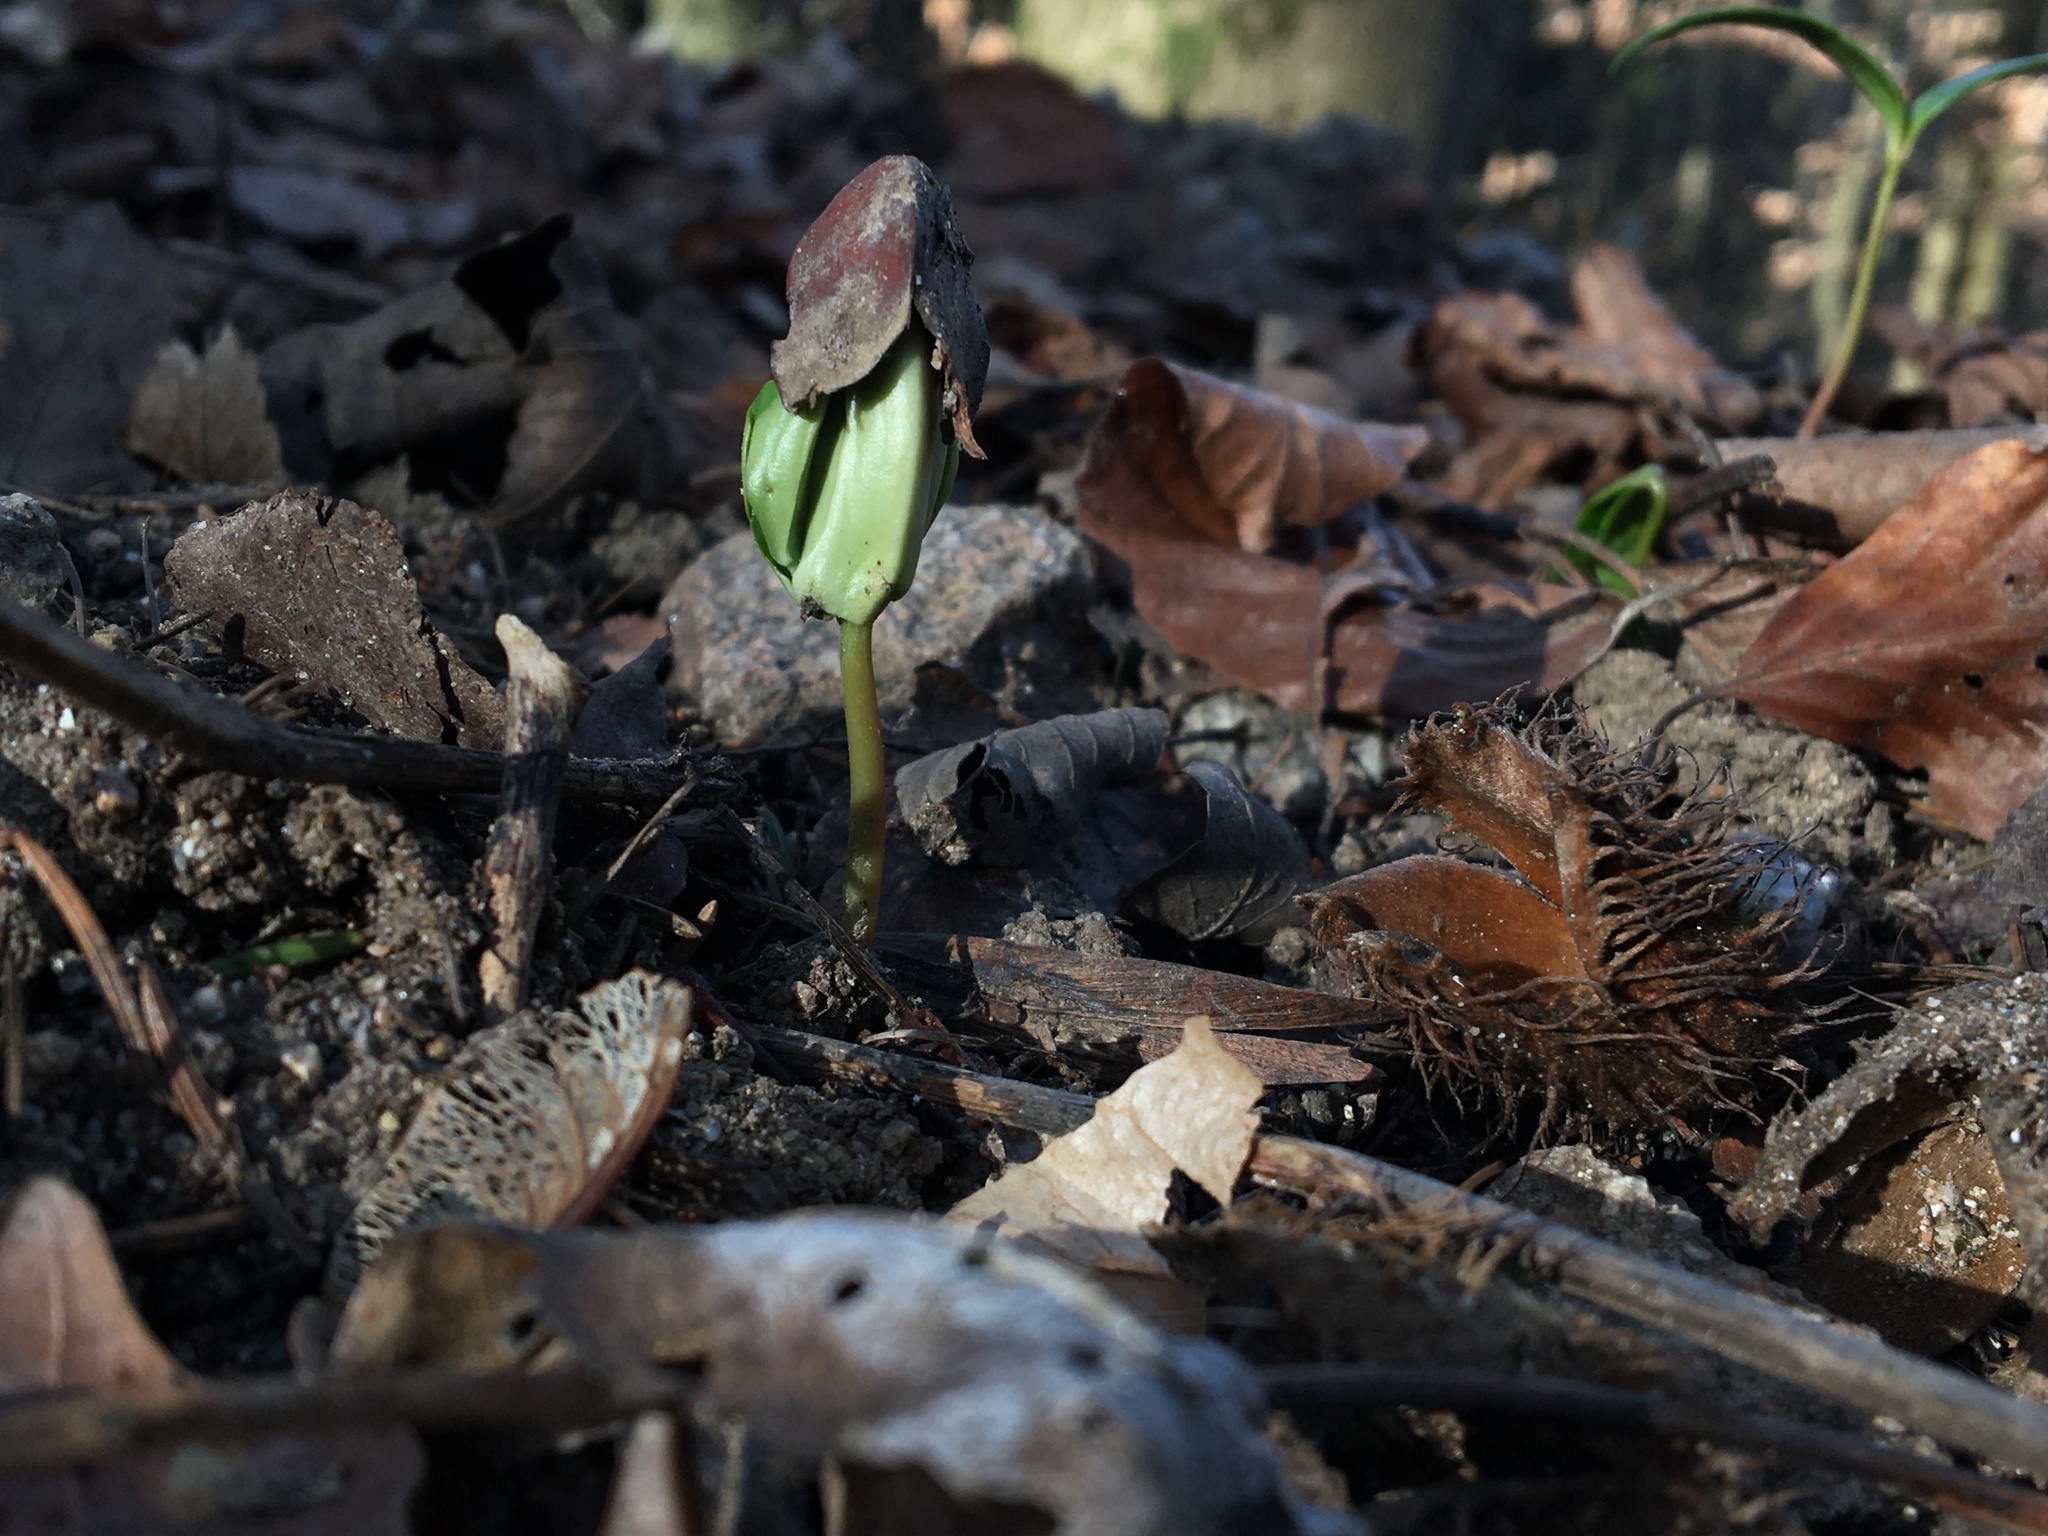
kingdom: Plantae
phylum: Tracheophyta
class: Magnoliopsida
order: Fagales
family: Fagaceae
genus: Fagus
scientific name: Fagus sylvatica
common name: Beech
